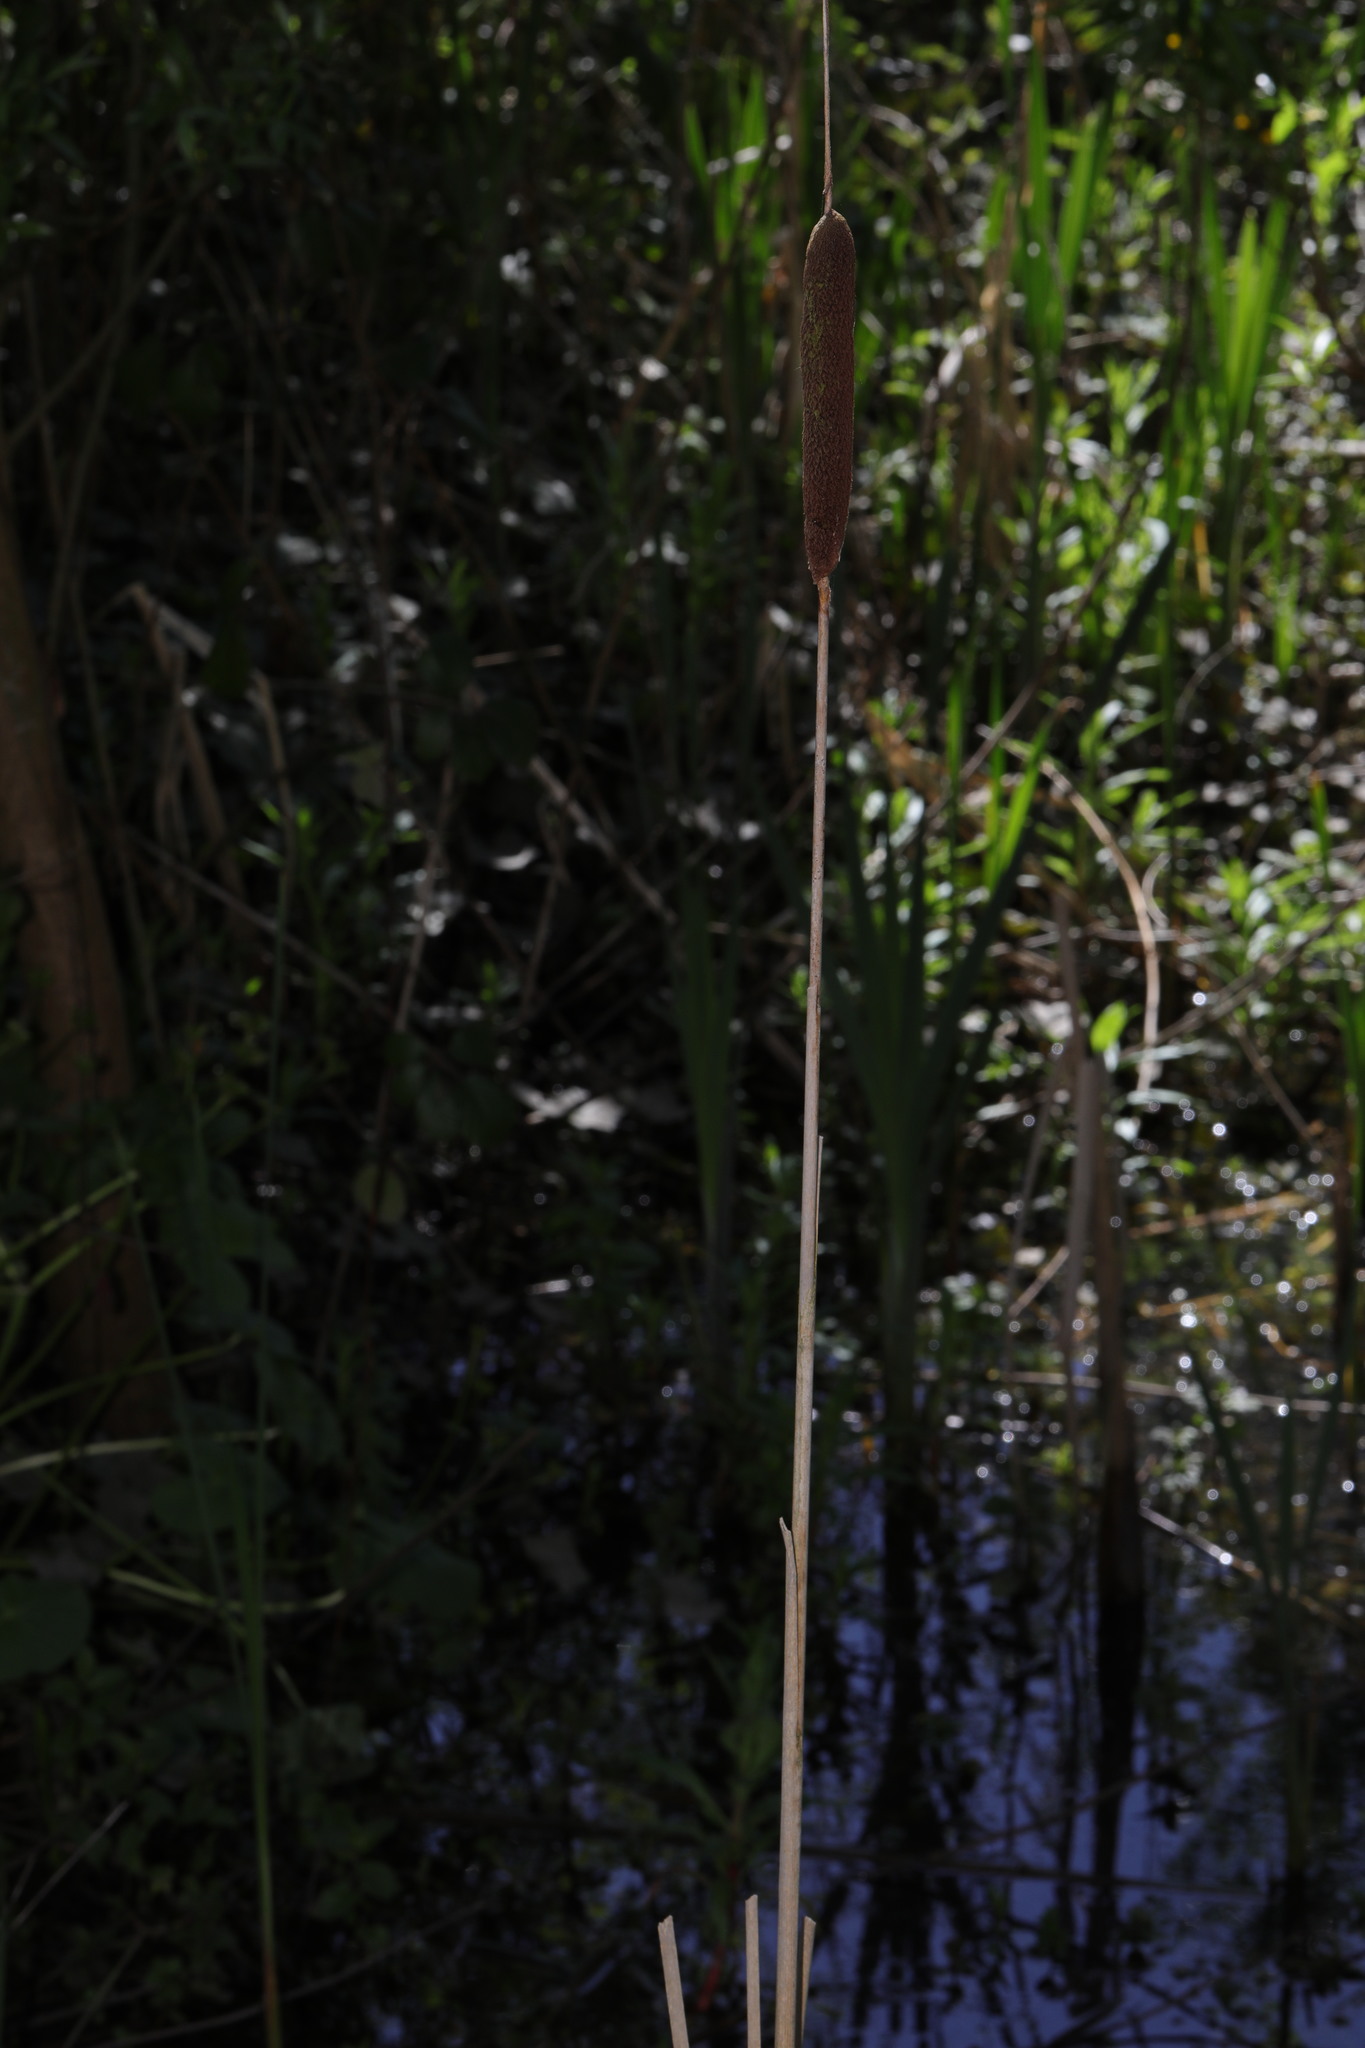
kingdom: Plantae
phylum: Tracheophyta
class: Liliopsida
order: Poales
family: Typhaceae
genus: Typha
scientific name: Typha latifolia
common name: Broadleaf cattail
